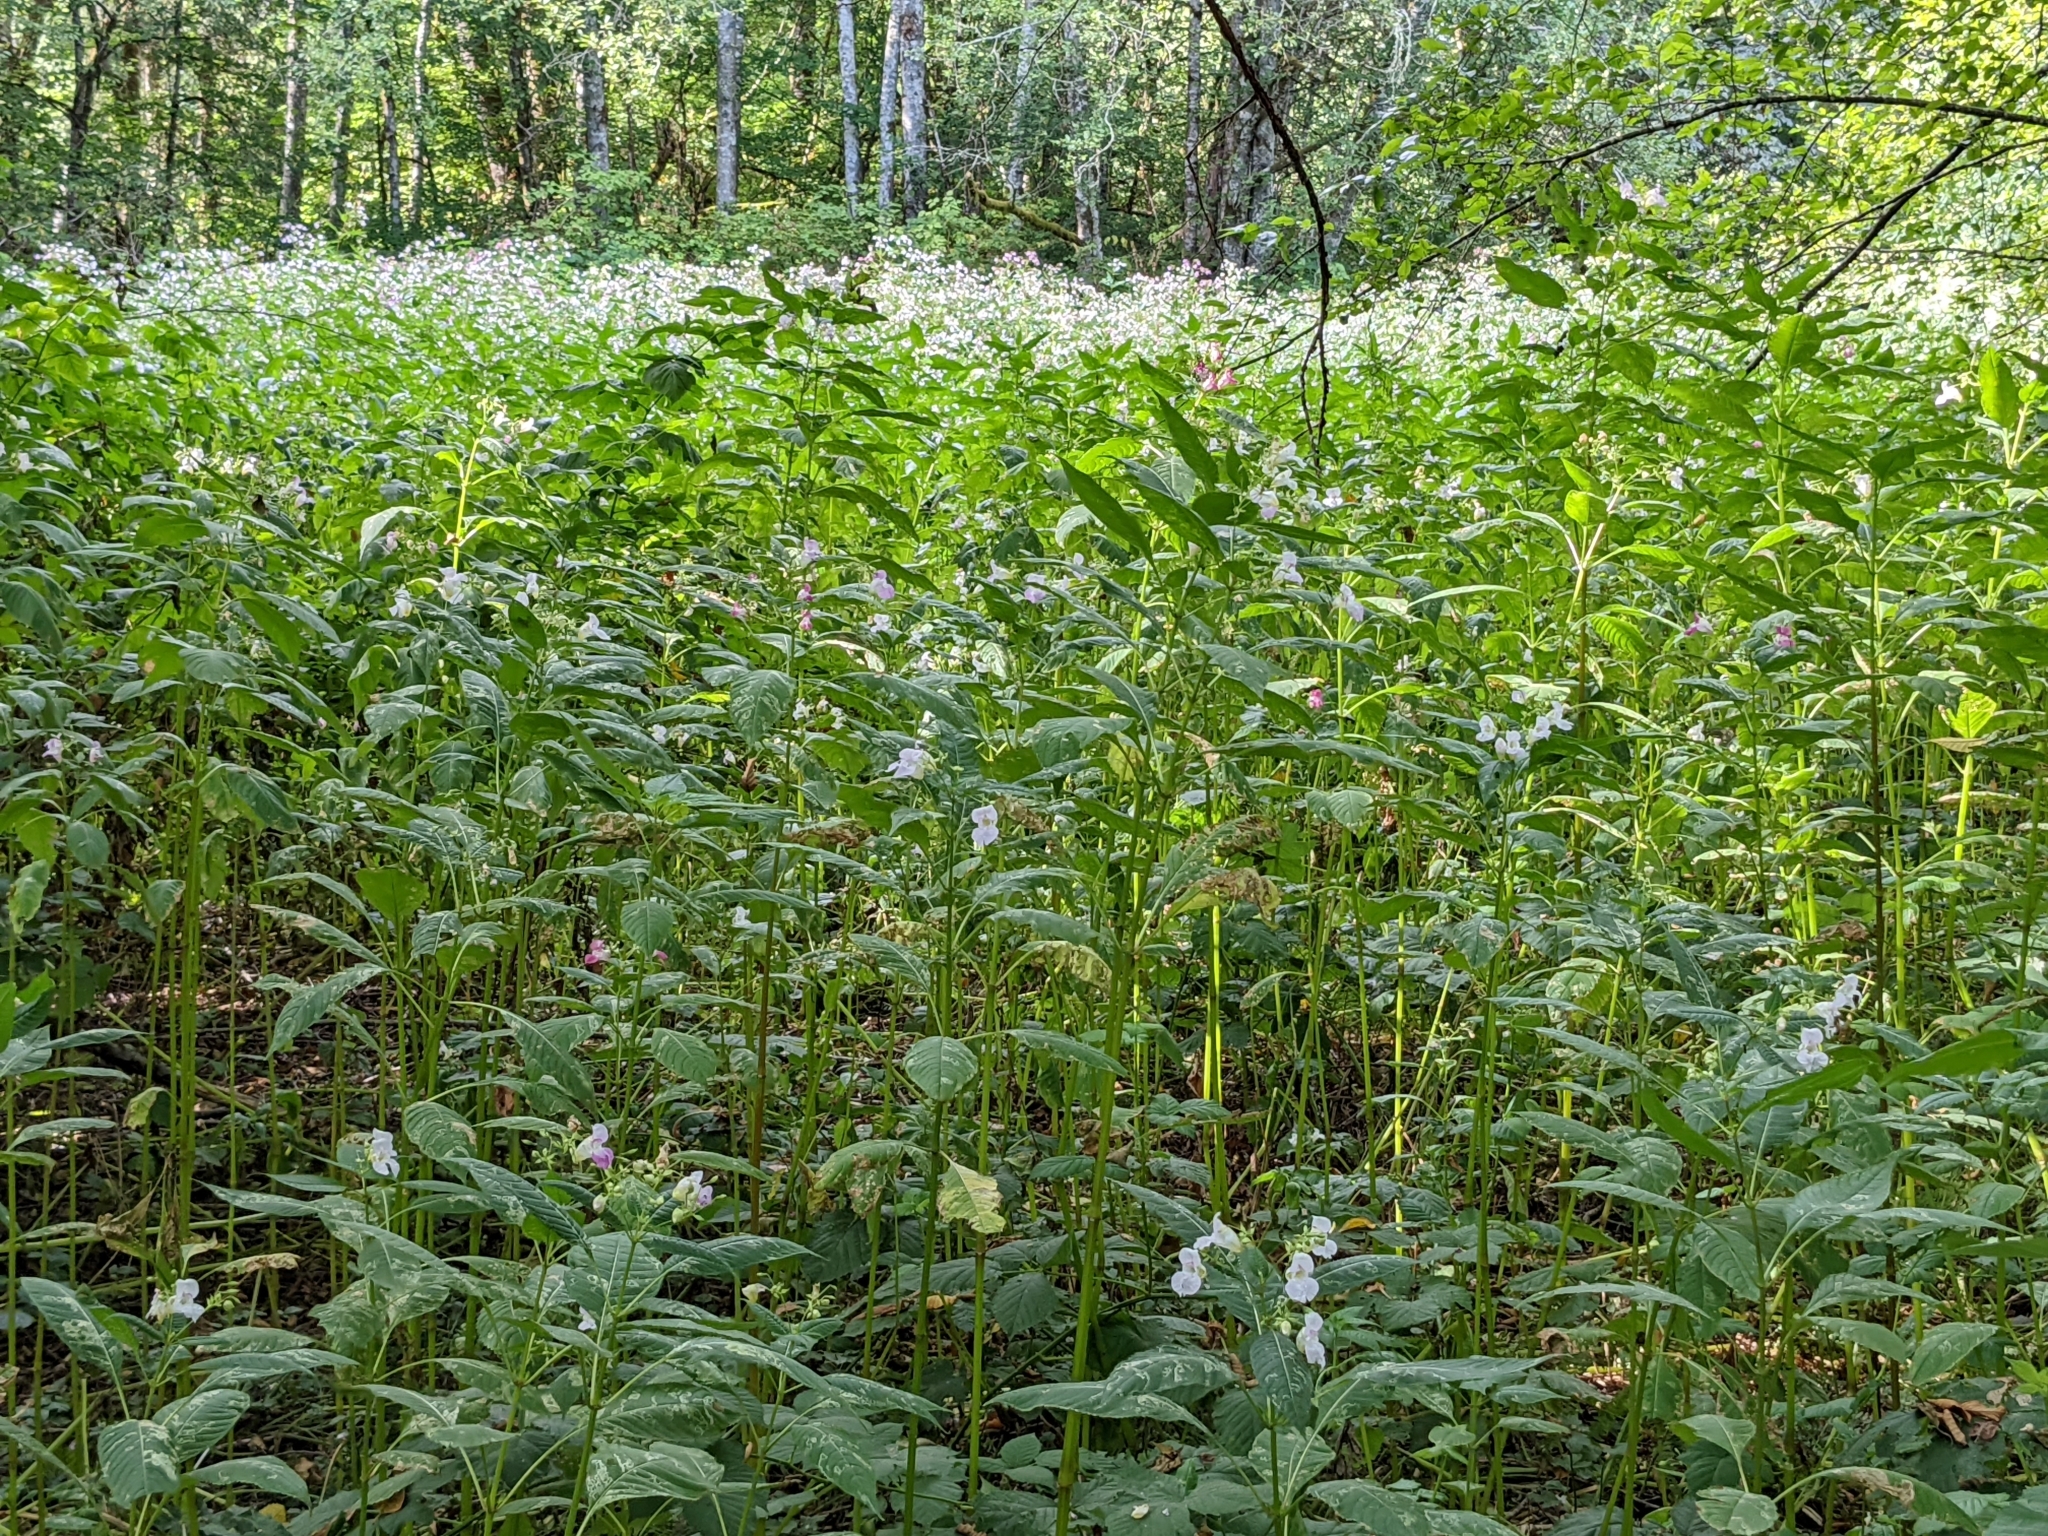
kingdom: Plantae
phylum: Tracheophyta
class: Magnoliopsida
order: Ericales
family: Balsaminaceae
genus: Impatiens
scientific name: Impatiens glandulifera
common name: Himalayan balsam
